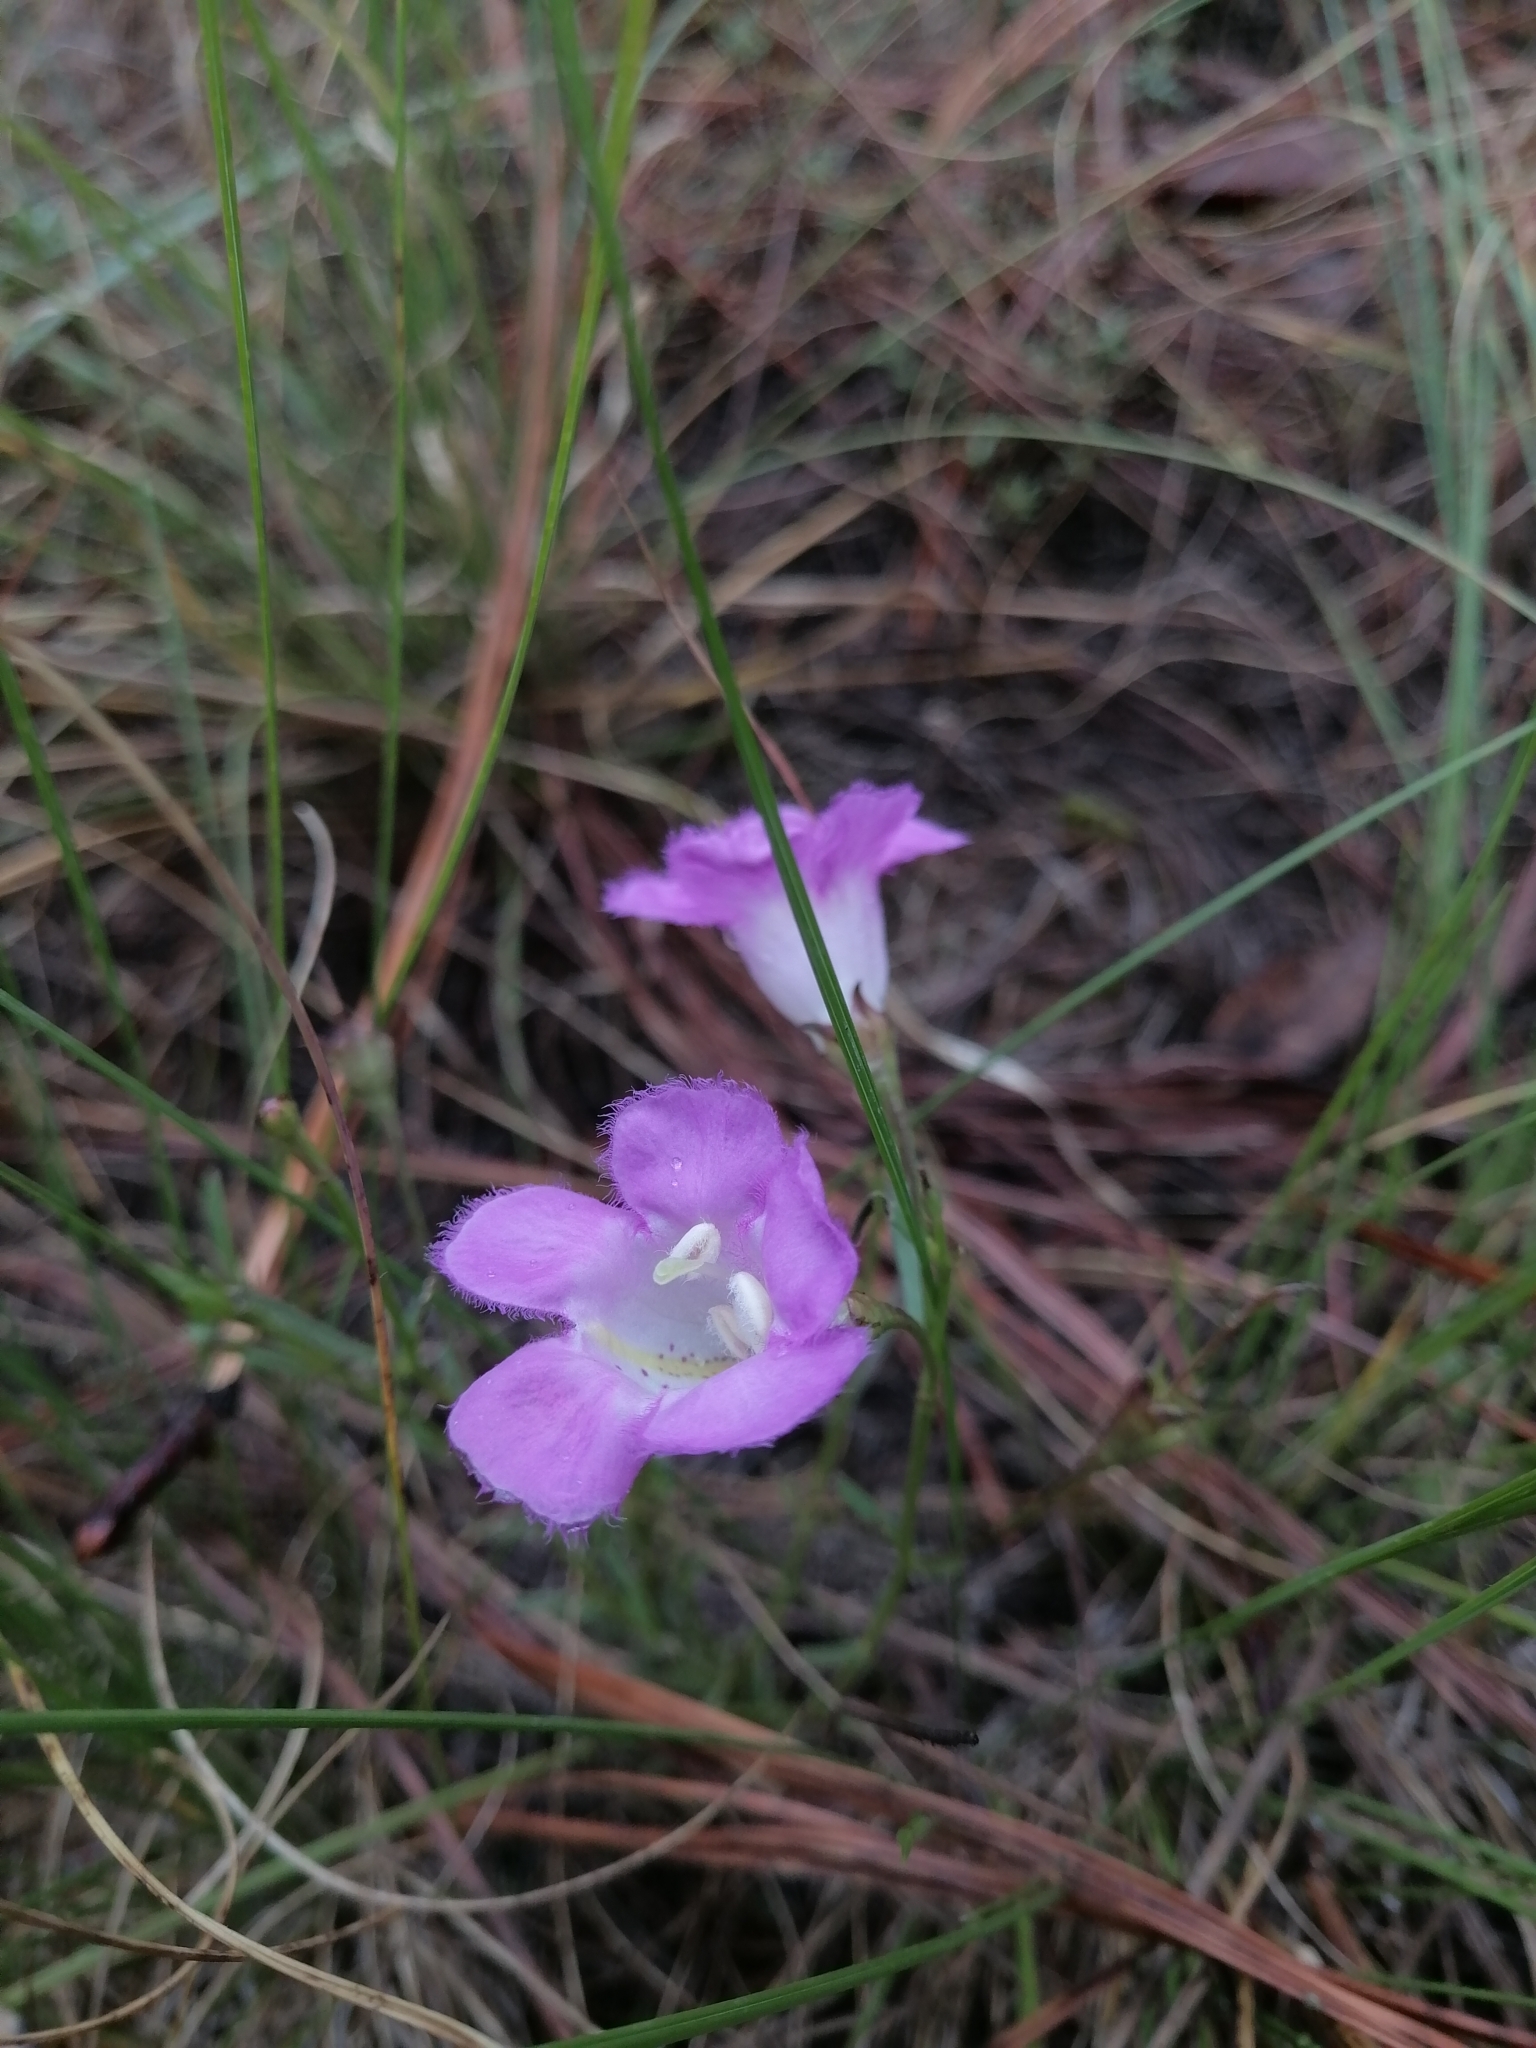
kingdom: Plantae
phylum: Tracheophyta
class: Magnoliopsida
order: Lamiales
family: Orobanchaceae
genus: Agalinis
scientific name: Agalinis peduncularis
